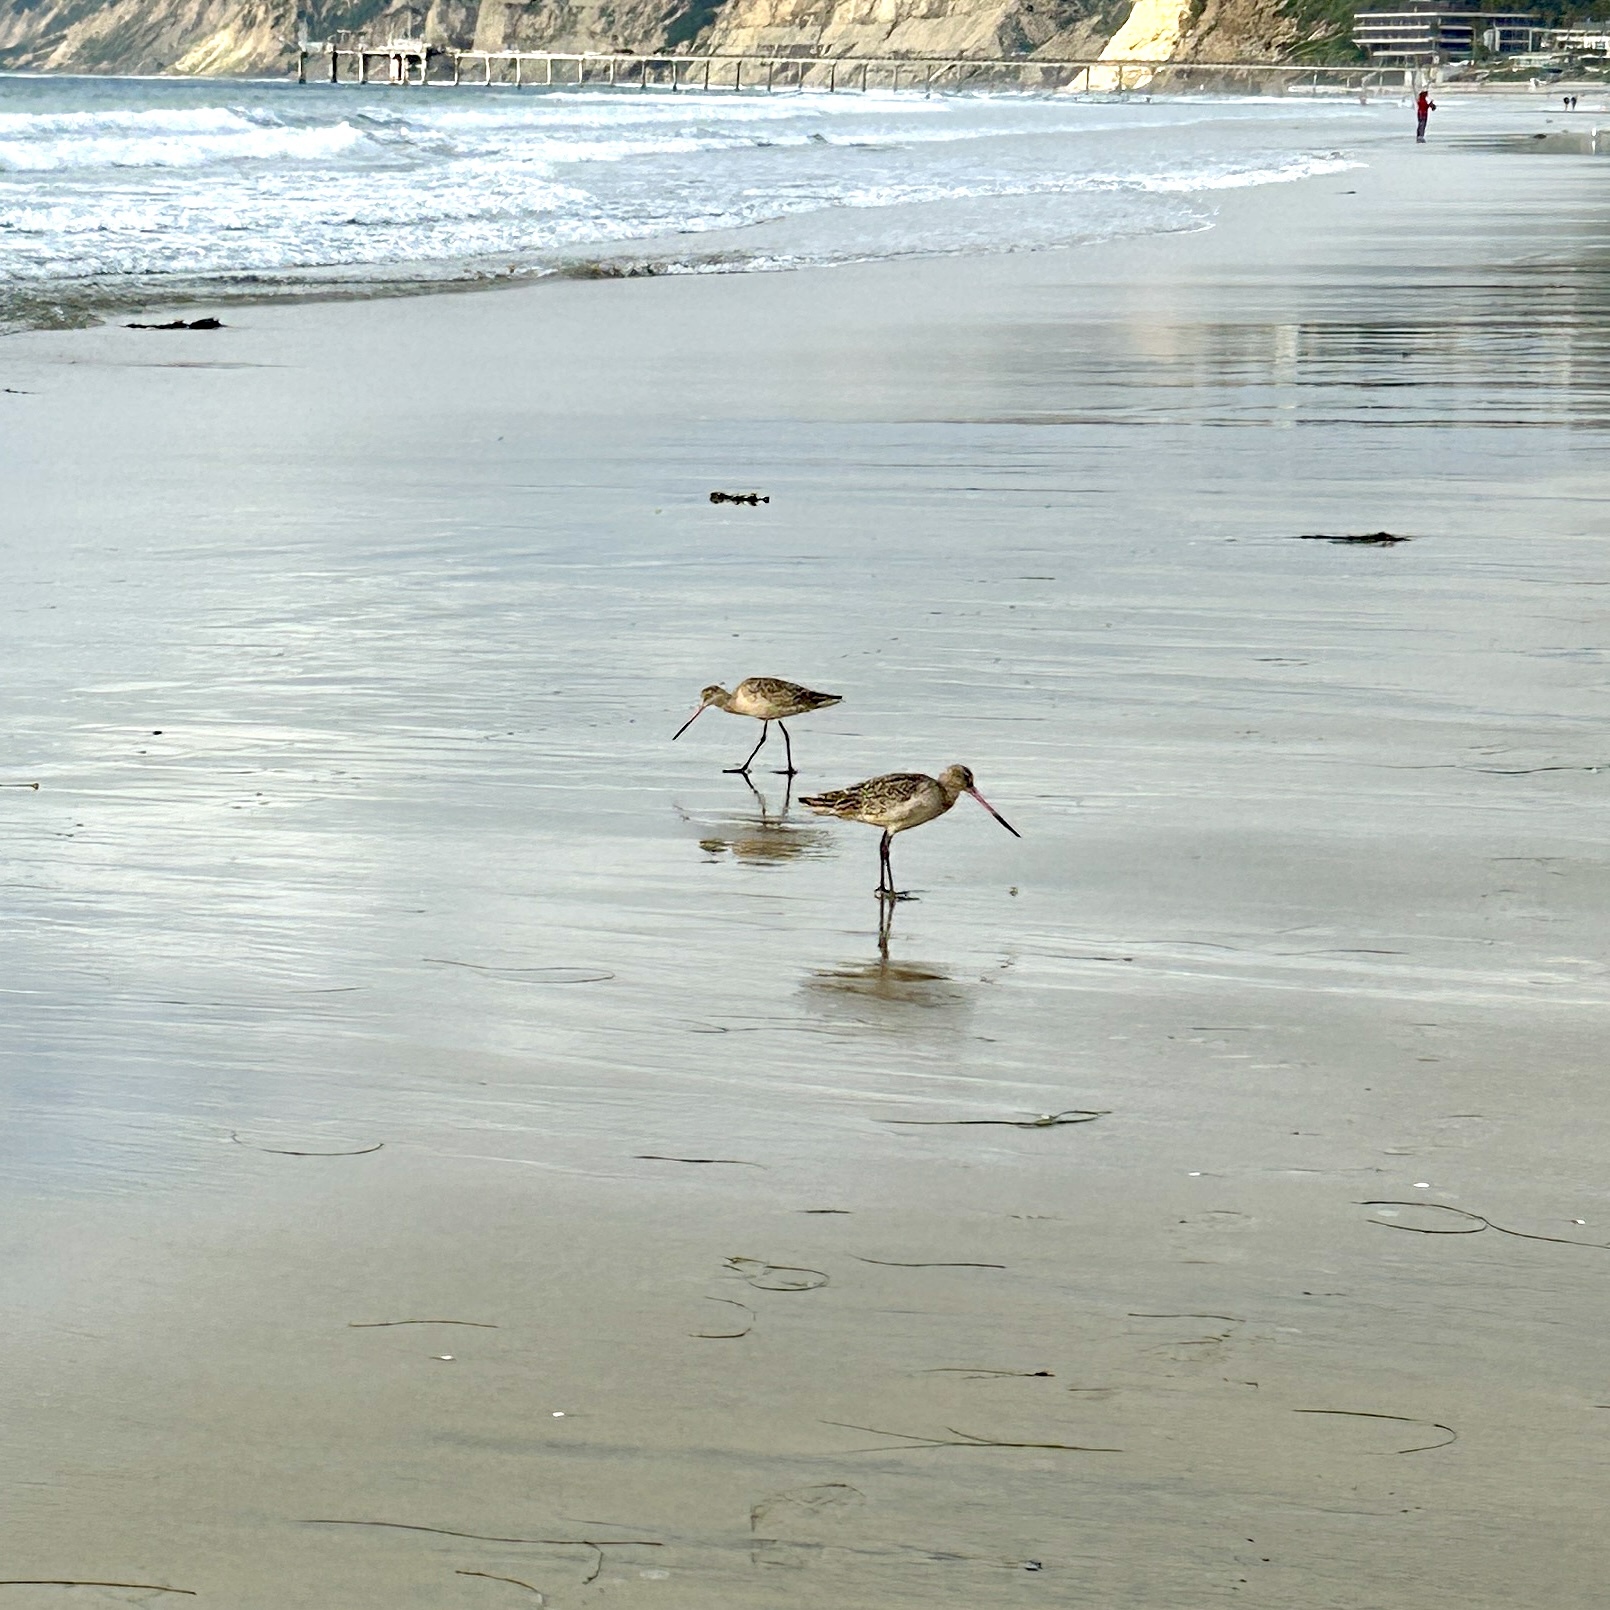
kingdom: Animalia
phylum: Chordata
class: Aves
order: Charadriiformes
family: Scolopacidae
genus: Limosa
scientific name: Limosa fedoa
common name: Marbled godwit
